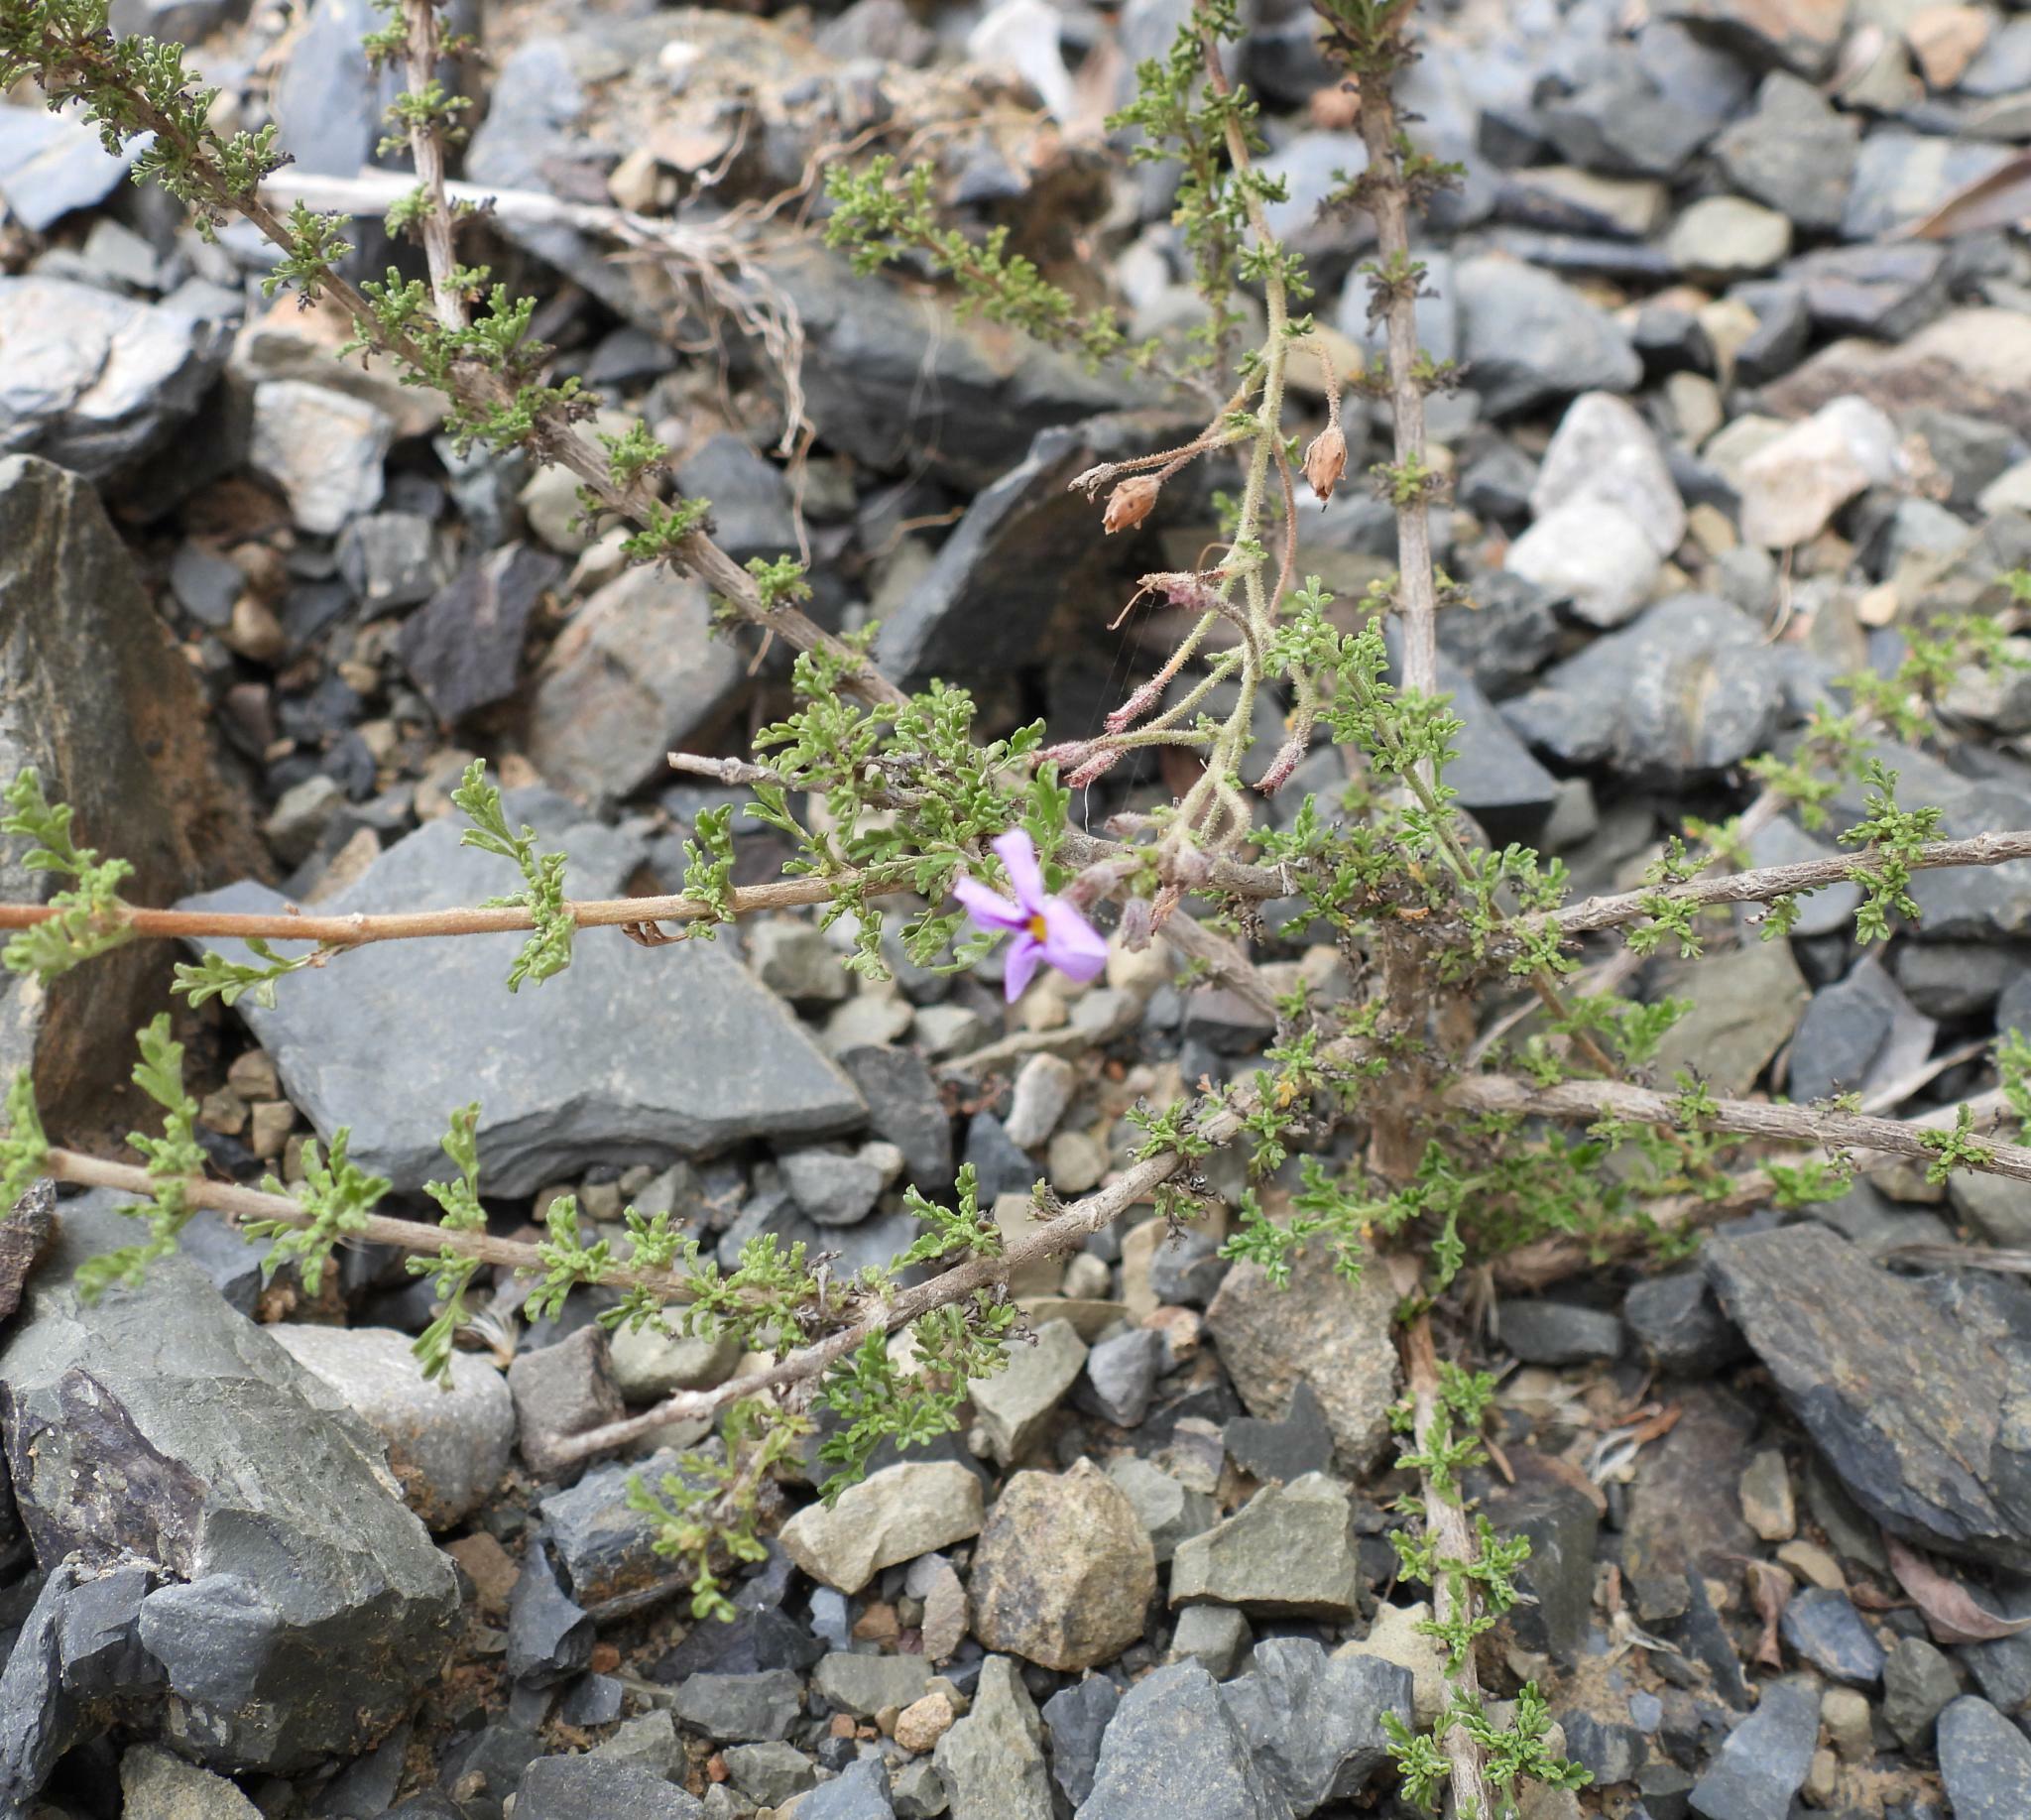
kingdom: Plantae
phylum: Tracheophyta
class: Magnoliopsida
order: Lamiales
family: Scrophulariaceae
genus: Jamesbrittenia
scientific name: Jamesbrittenia microphylla
